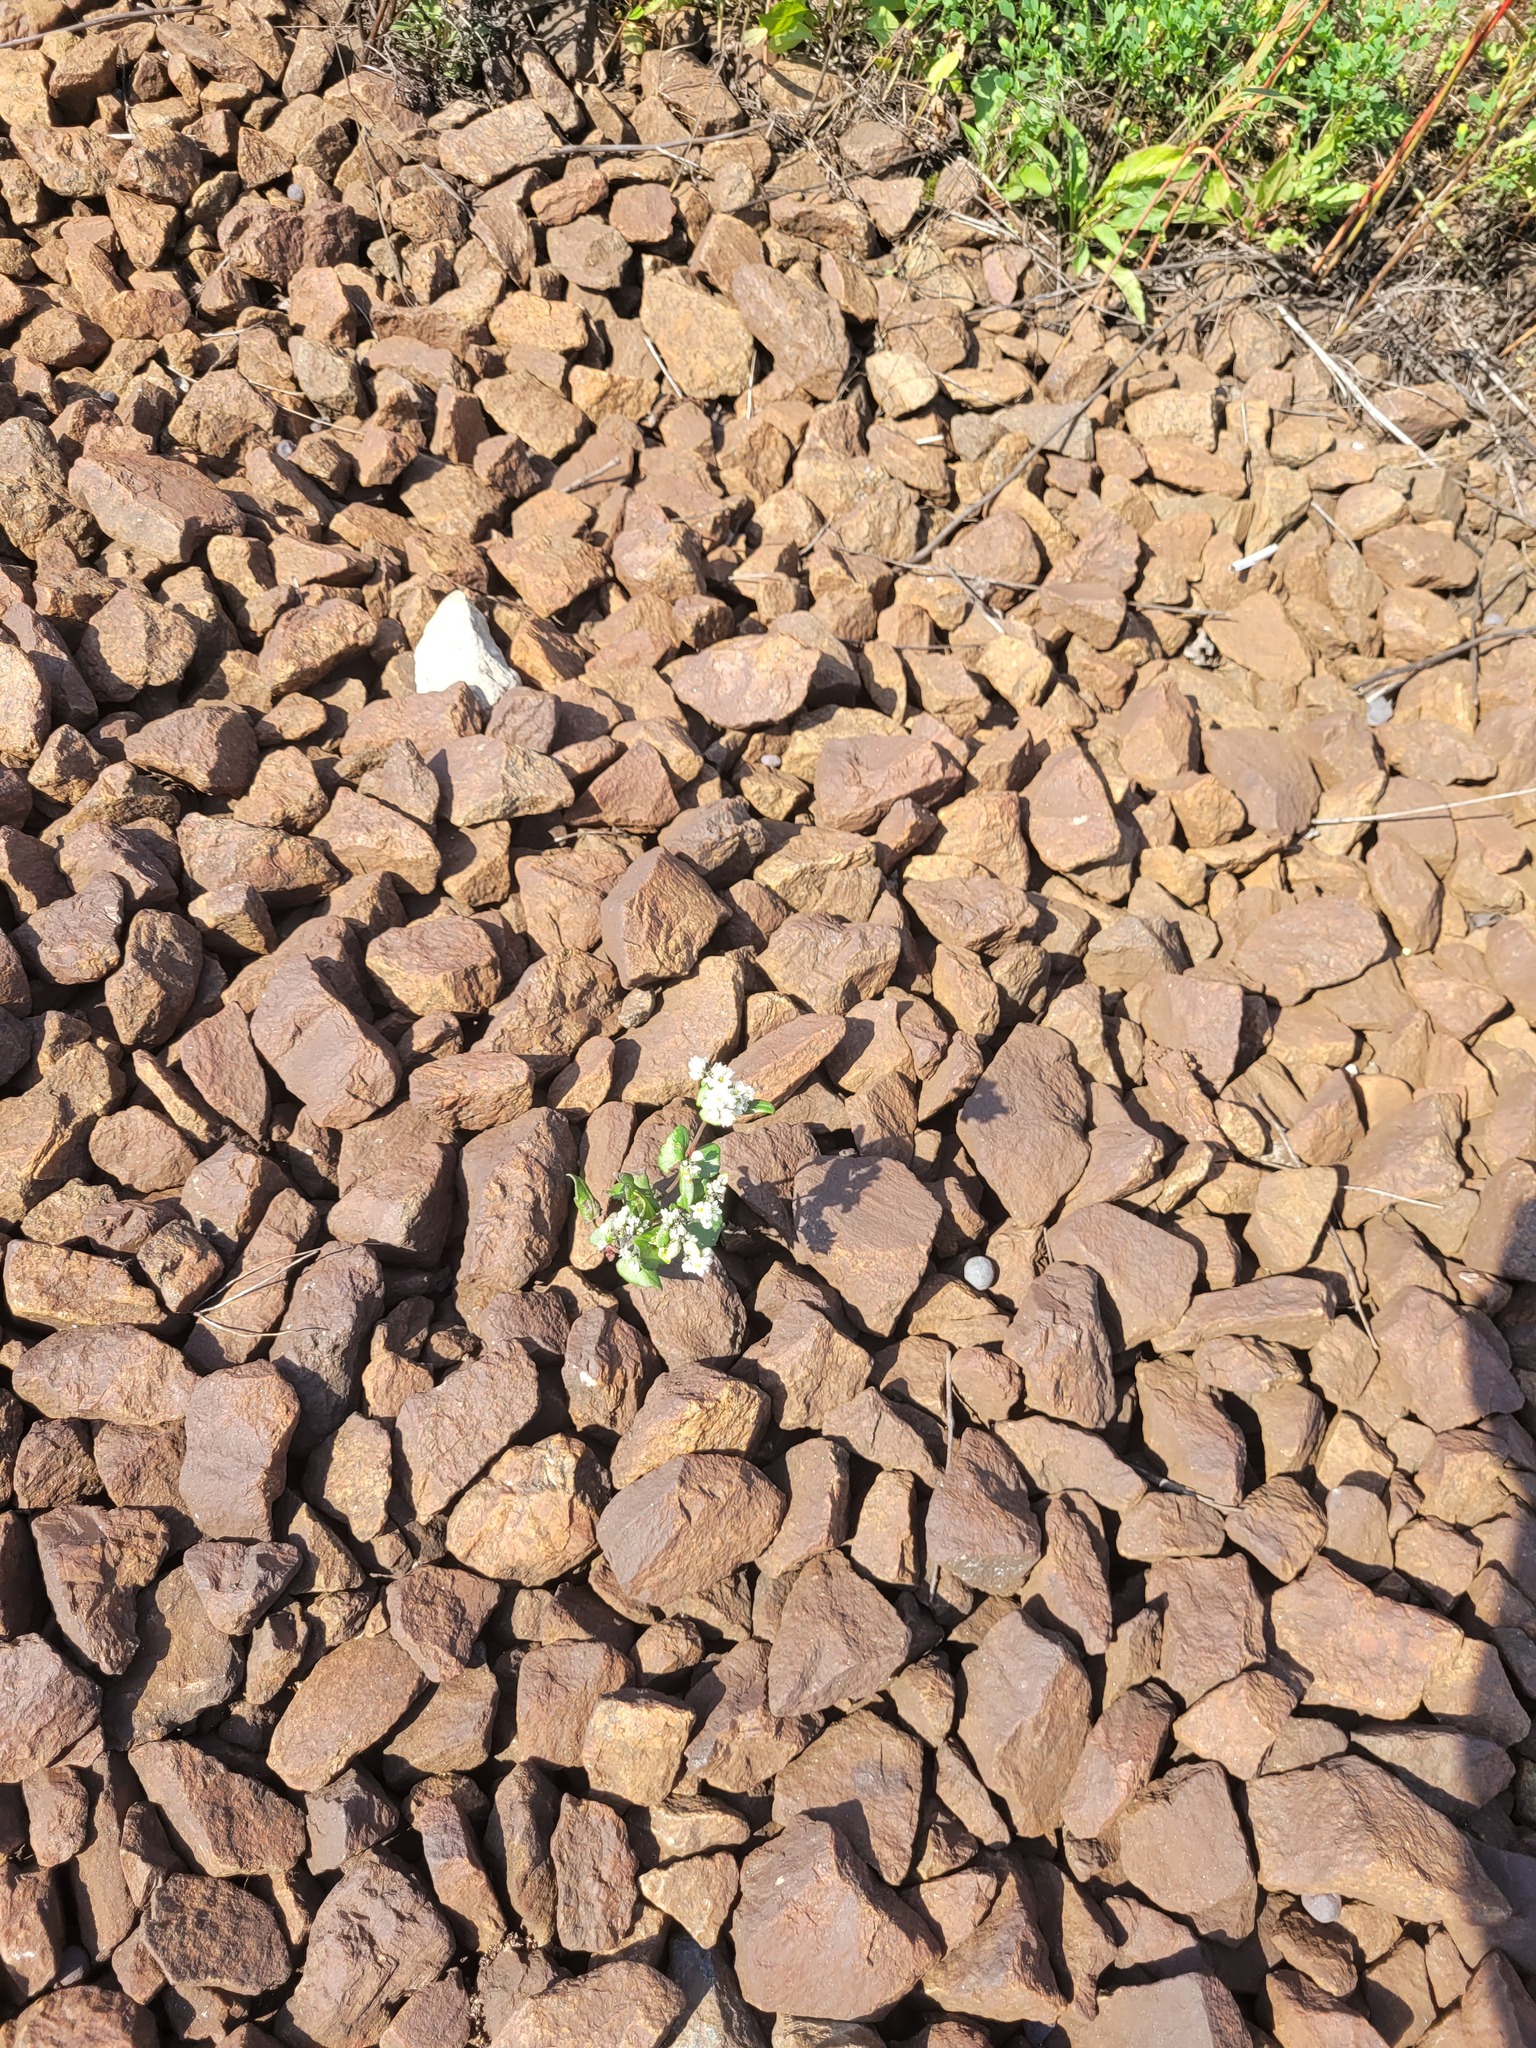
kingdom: Plantae
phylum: Tracheophyta
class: Magnoliopsida
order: Caryophyllales
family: Polygonaceae
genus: Fagopyrum
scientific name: Fagopyrum esculentum
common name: Buckwheat
